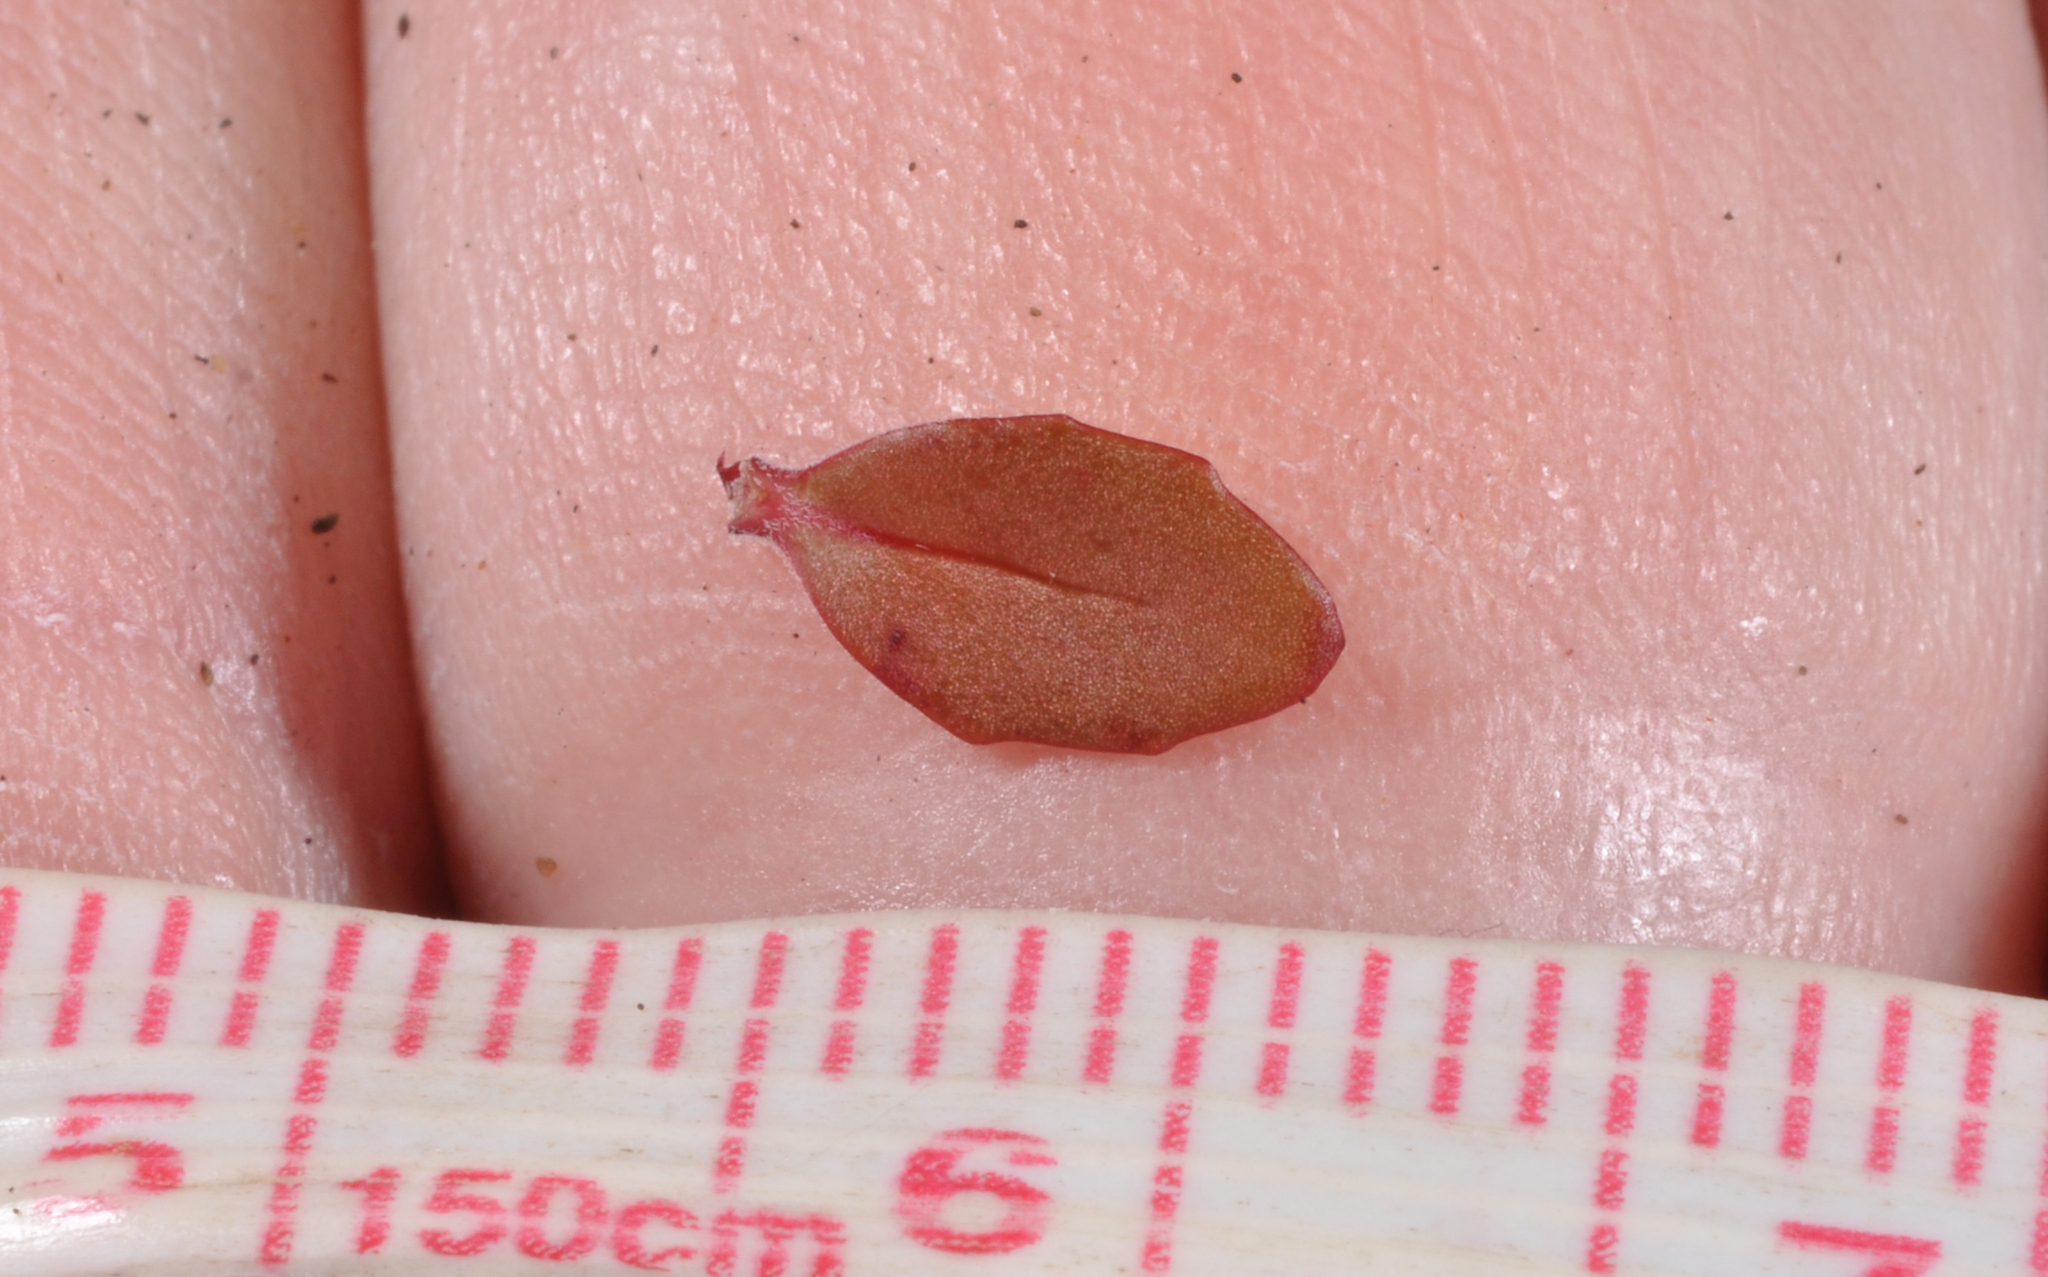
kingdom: Plantae
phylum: Tracheophyta
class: Magnoliopsida
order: Myrtales
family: Onagraceae
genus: Epilobium
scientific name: Epilobium hectorii
